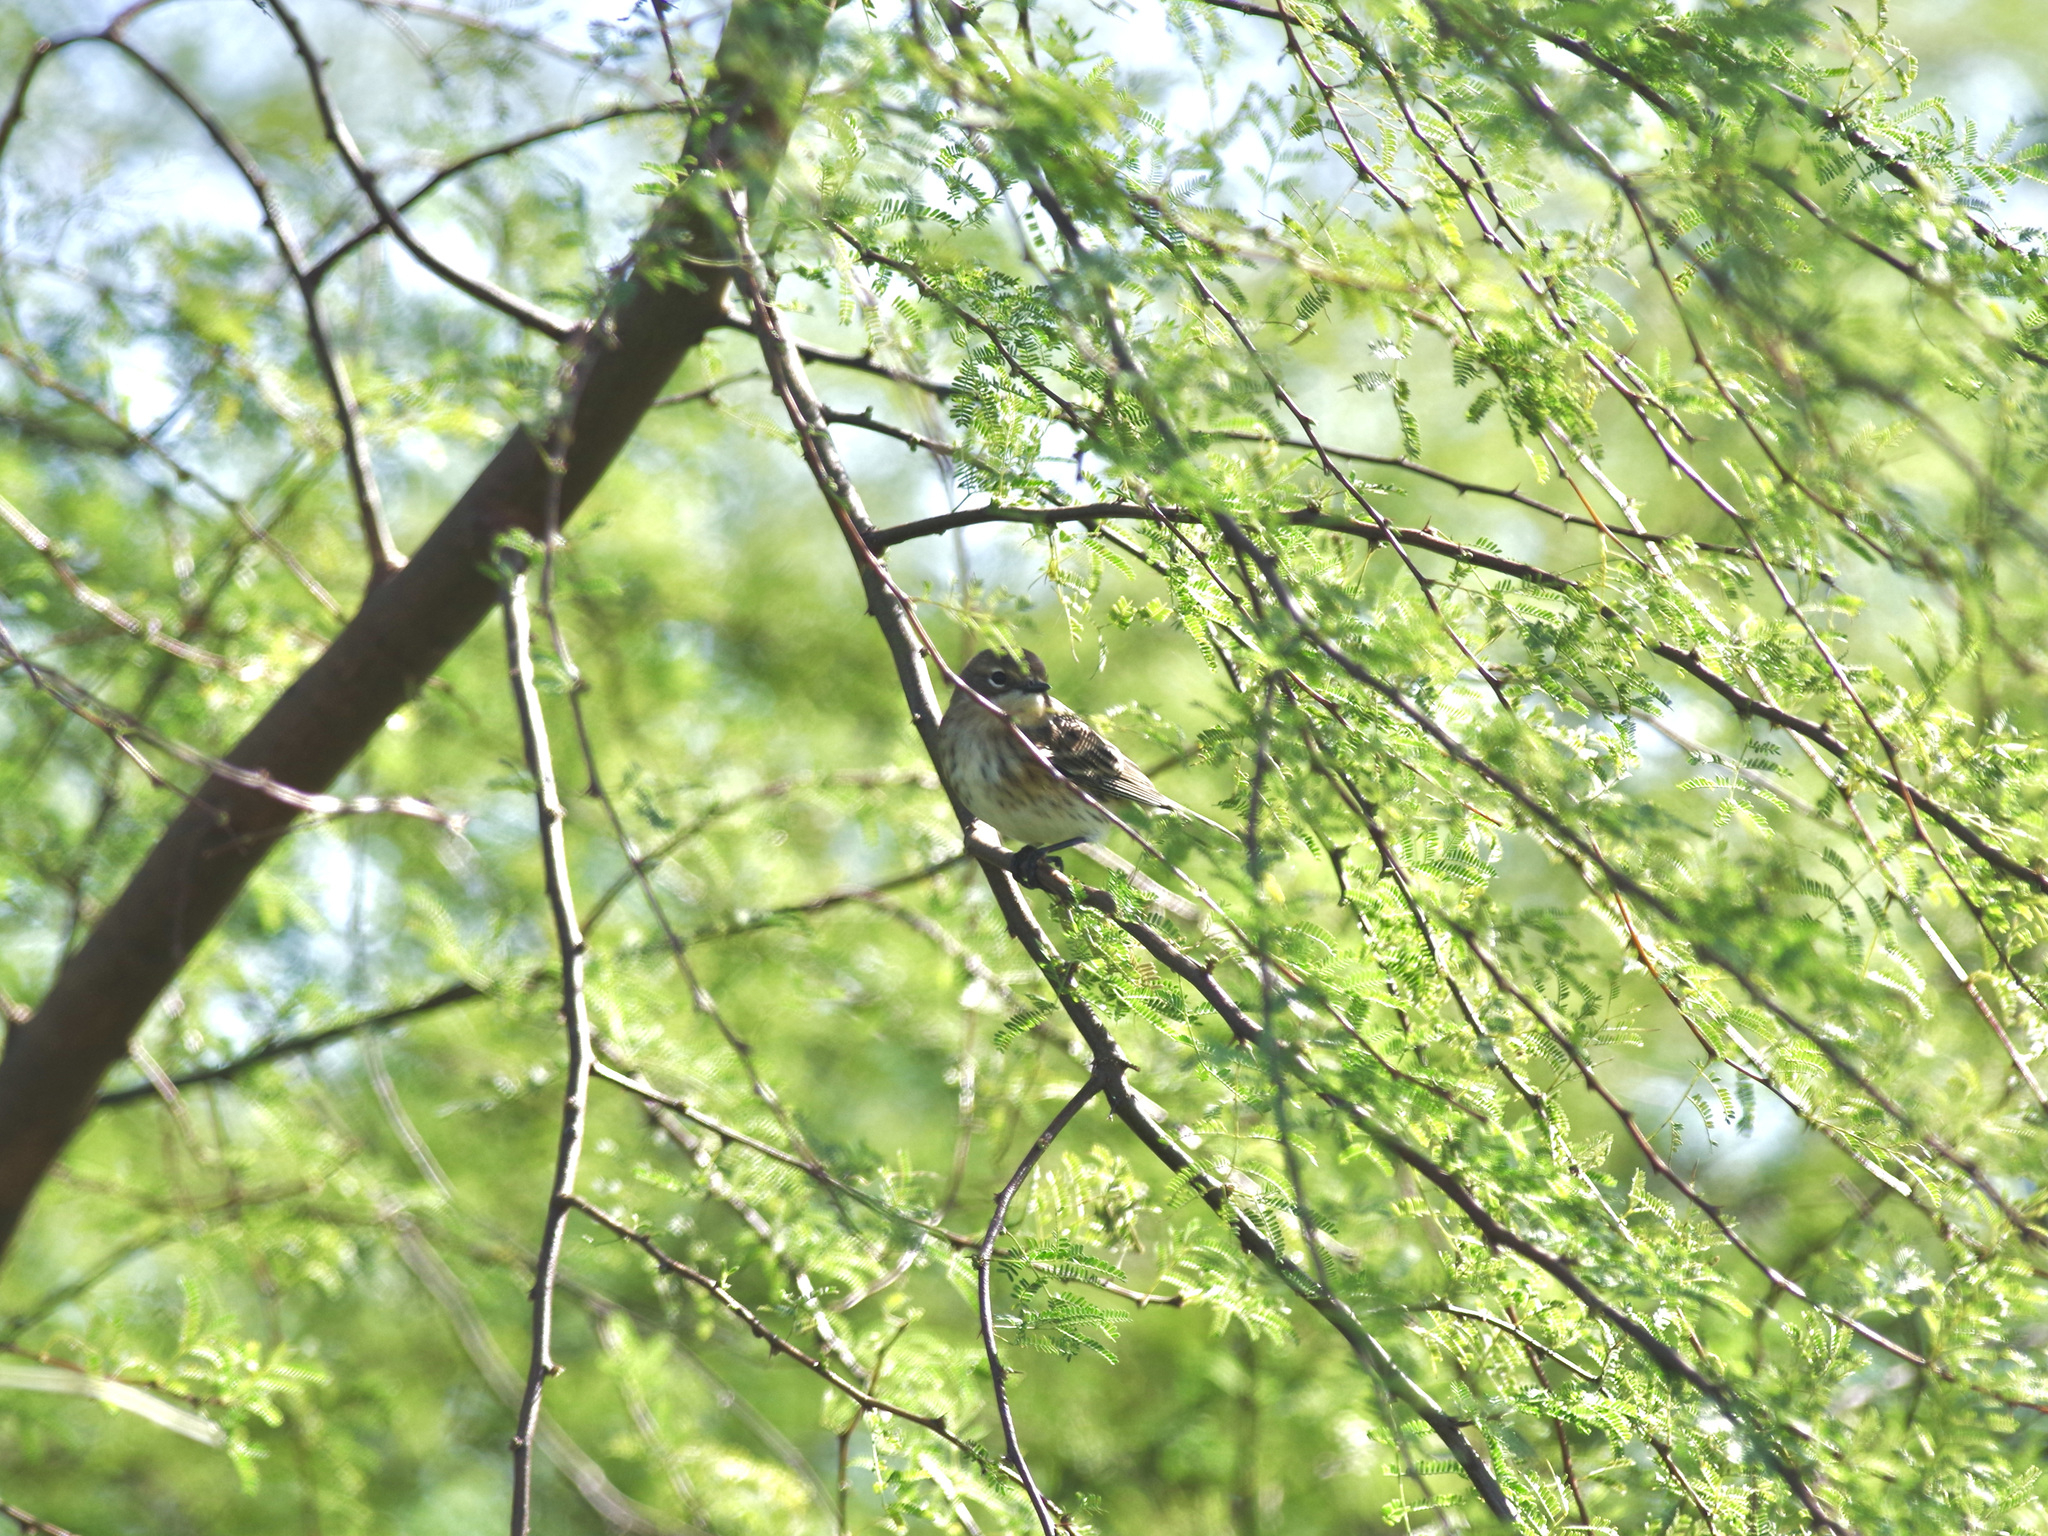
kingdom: Animalia
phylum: Chordata
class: Aves
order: Passeriformes
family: Parulidae
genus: Setophaga
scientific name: Setophaga coronata
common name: Myrtle warbler
